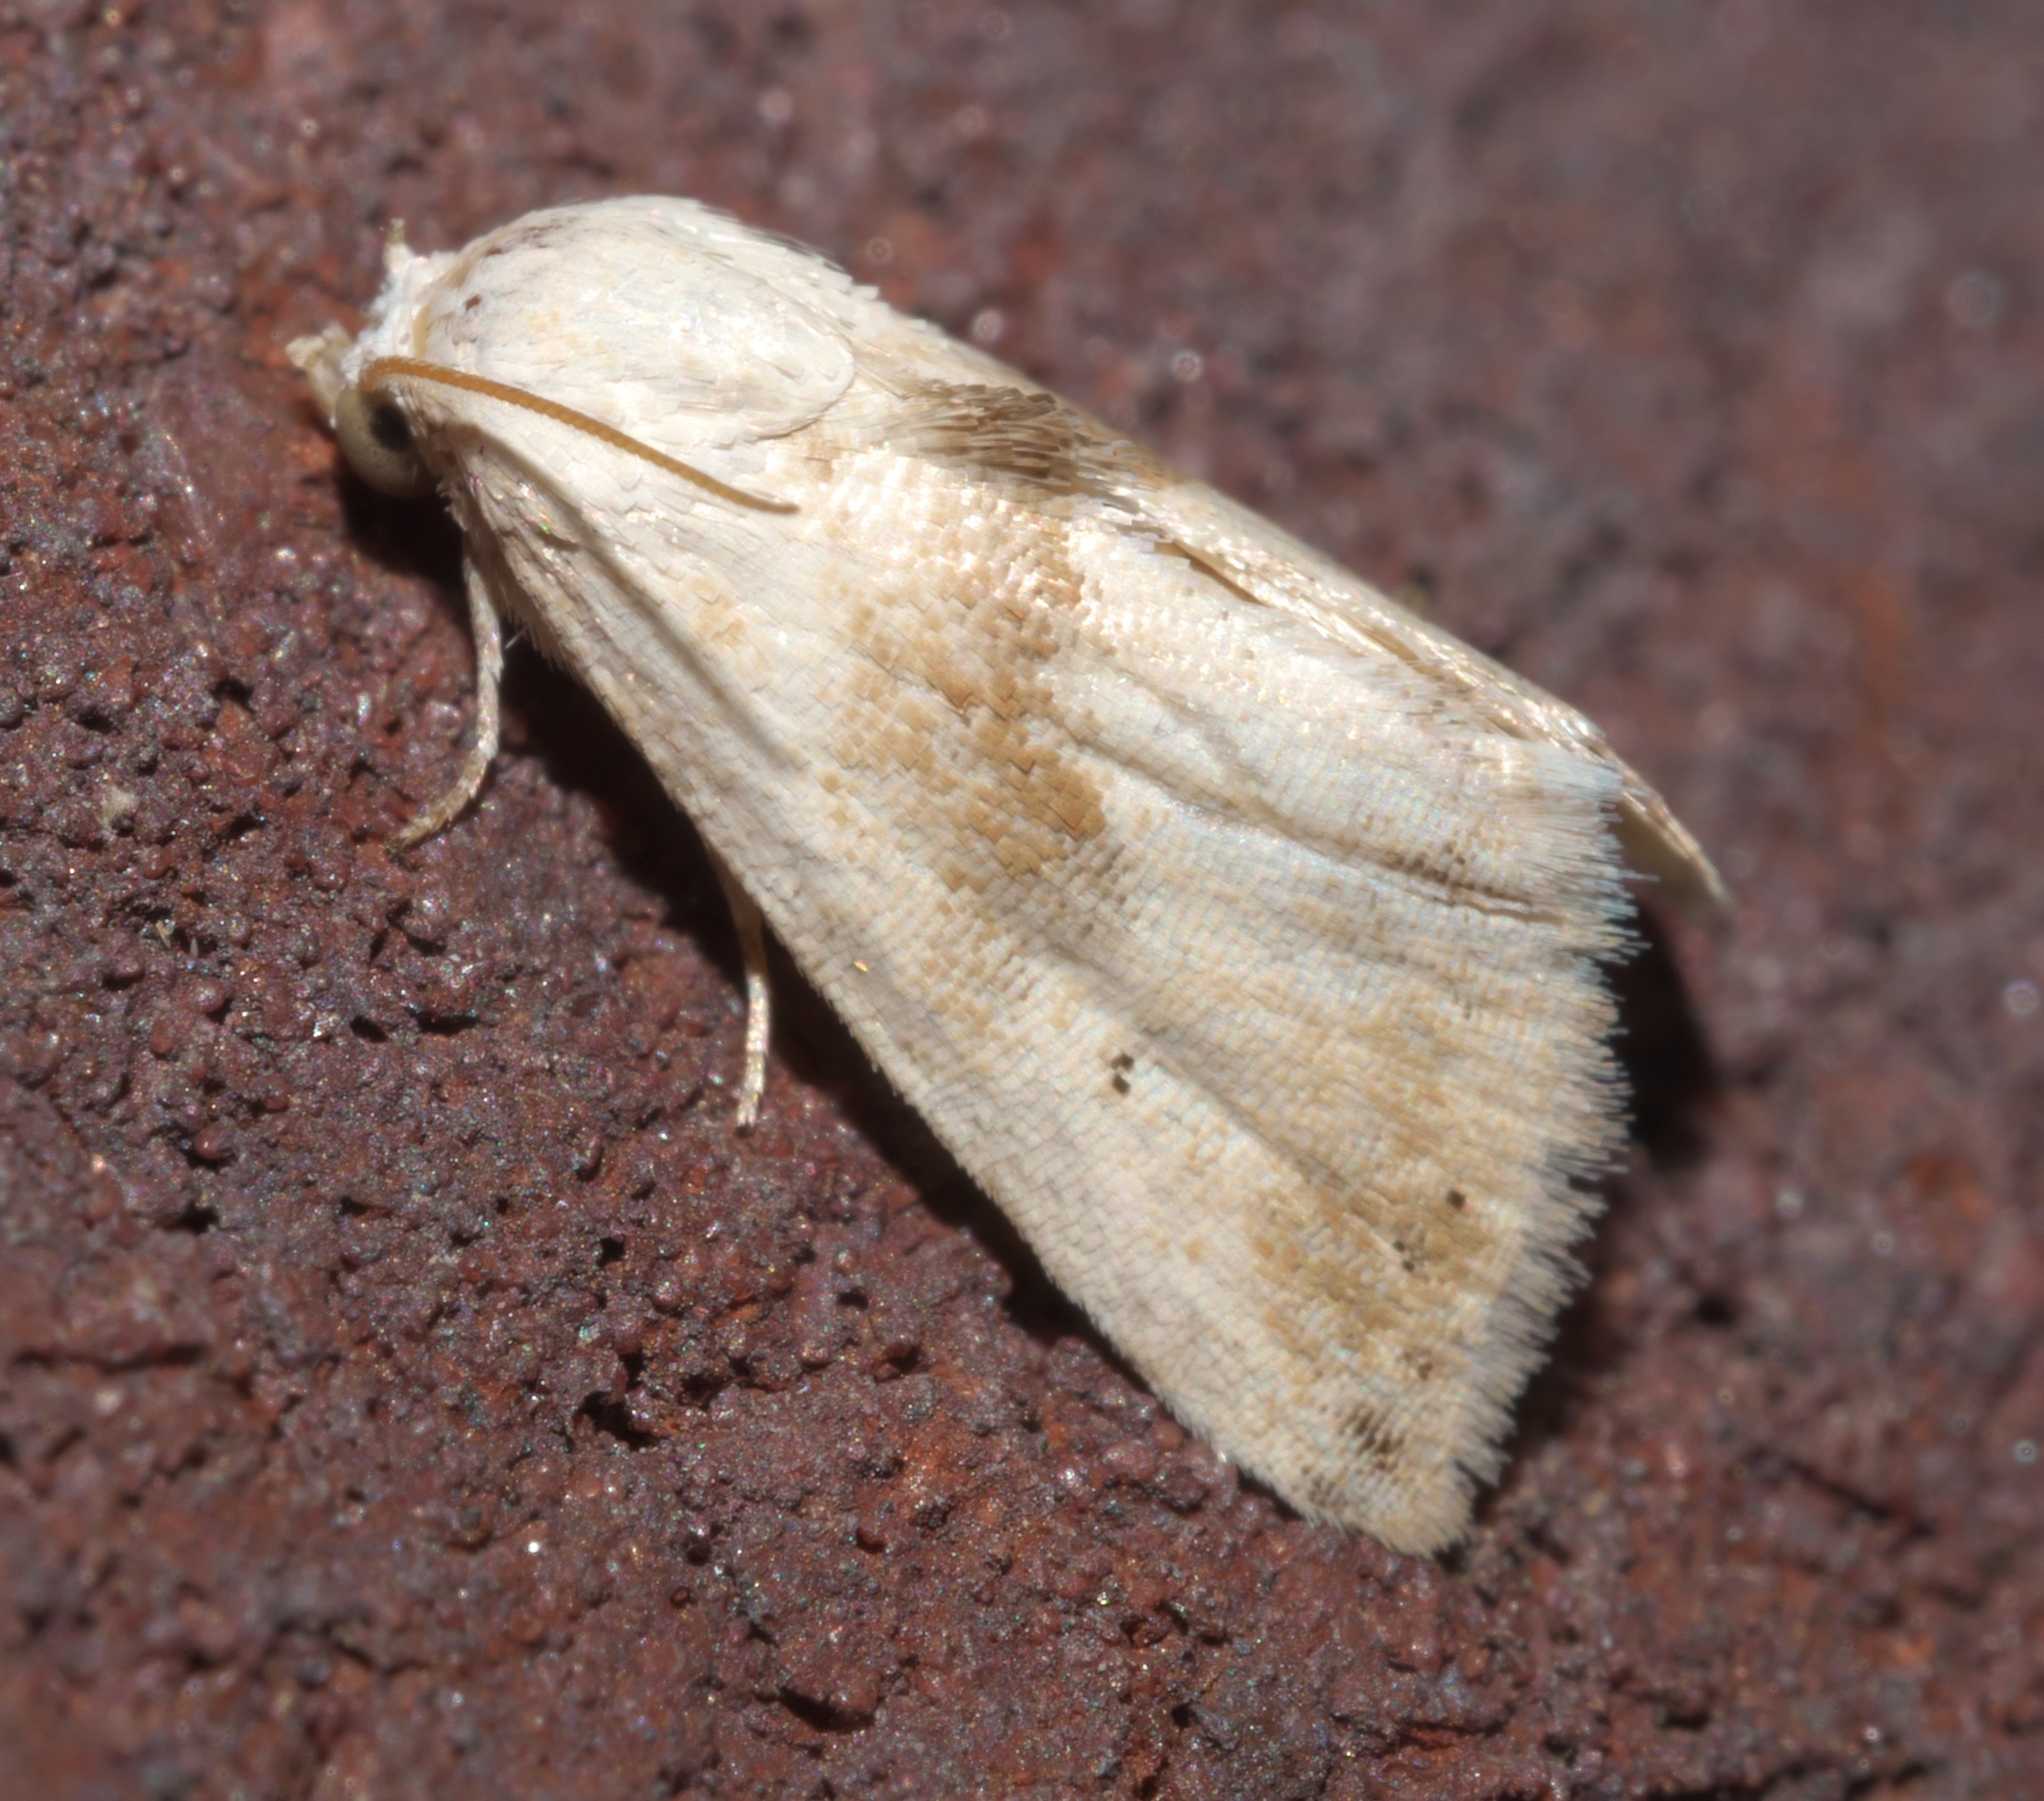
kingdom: Animalia
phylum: Arthropoda
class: Insecta
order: Lepidoptera
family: Noctuidae
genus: Eublemma
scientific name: Eublemma minima
